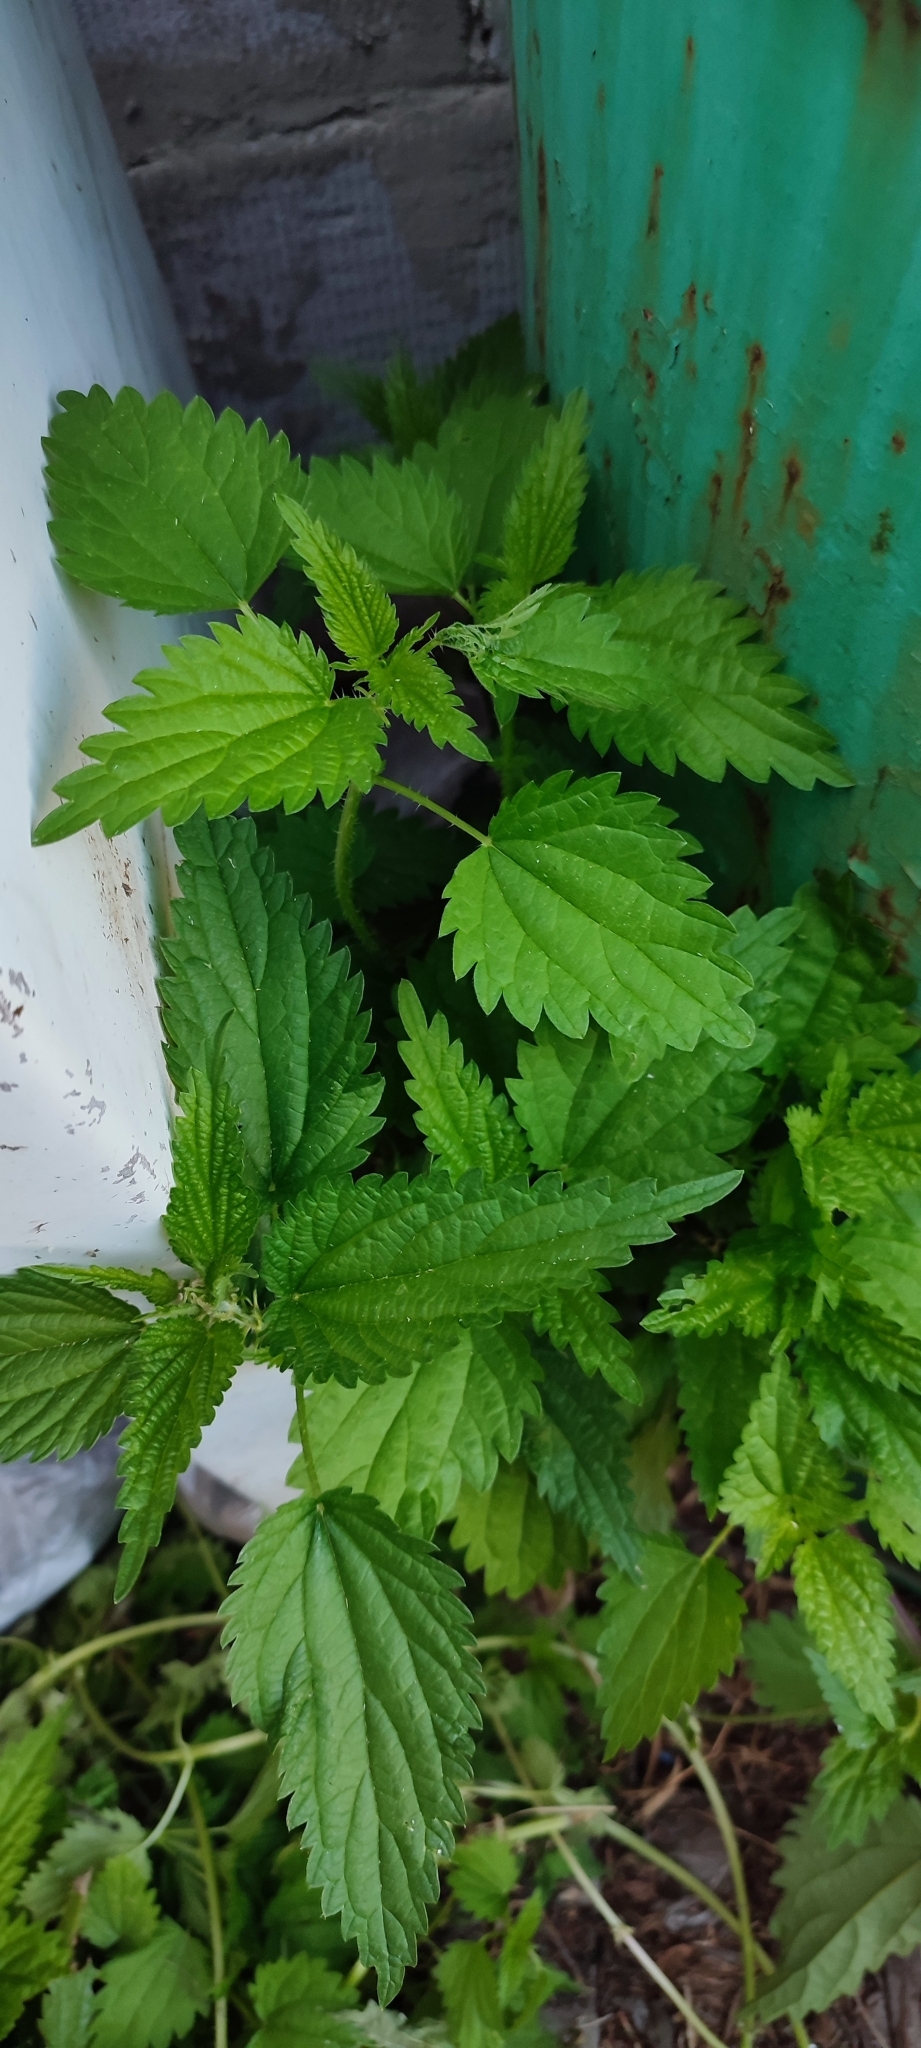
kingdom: Plantae
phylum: Tracheophyta
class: Magnoliopsida
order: Rosales
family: Urticaceae
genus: Urtica
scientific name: Urtica dioica
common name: Common nettle
